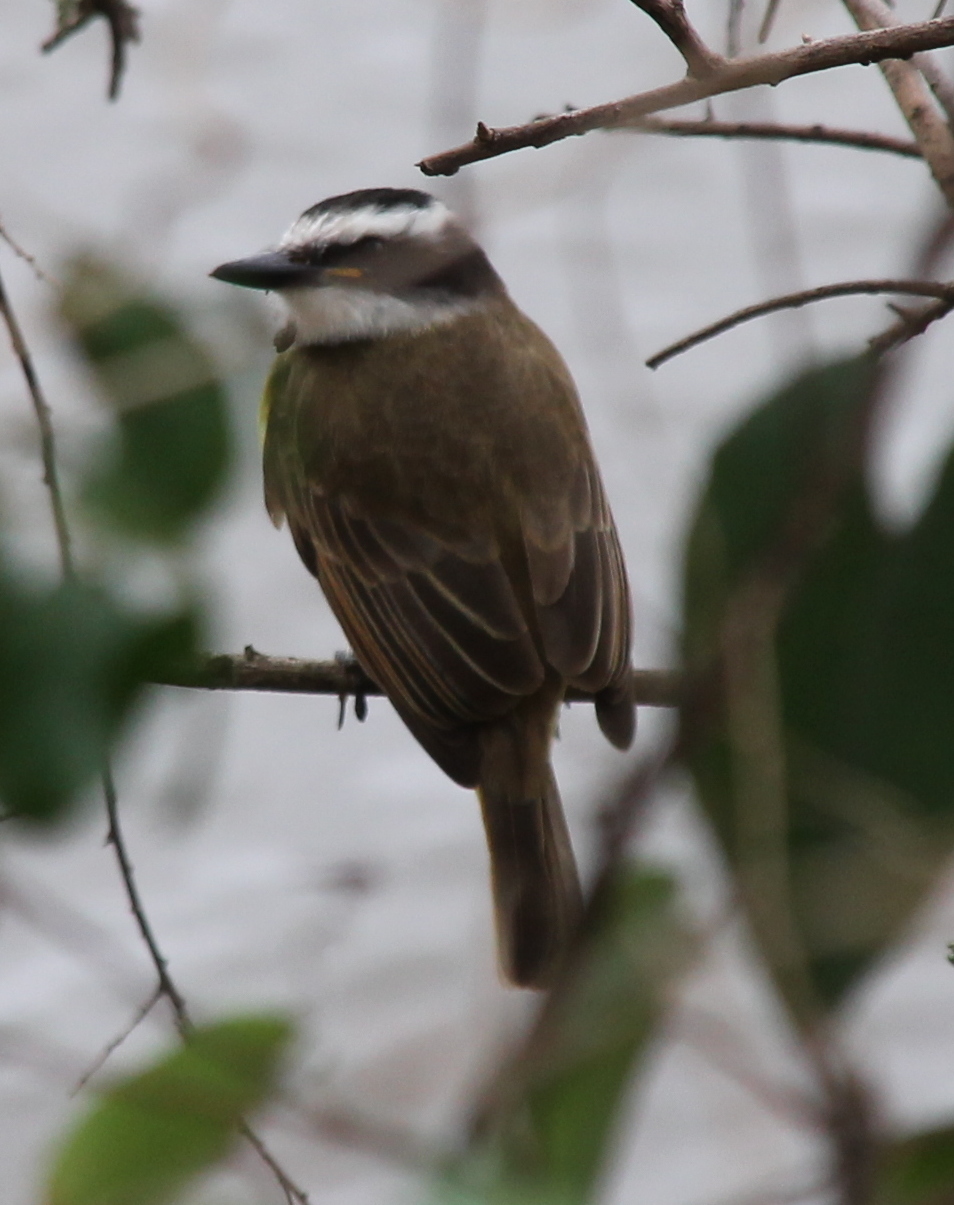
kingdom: Animalia
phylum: Chordata
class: Aves
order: Passeriformes
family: Tyrannidae
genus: Pitangus
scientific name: Pitangus sulphuratus
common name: Great kiskadee
